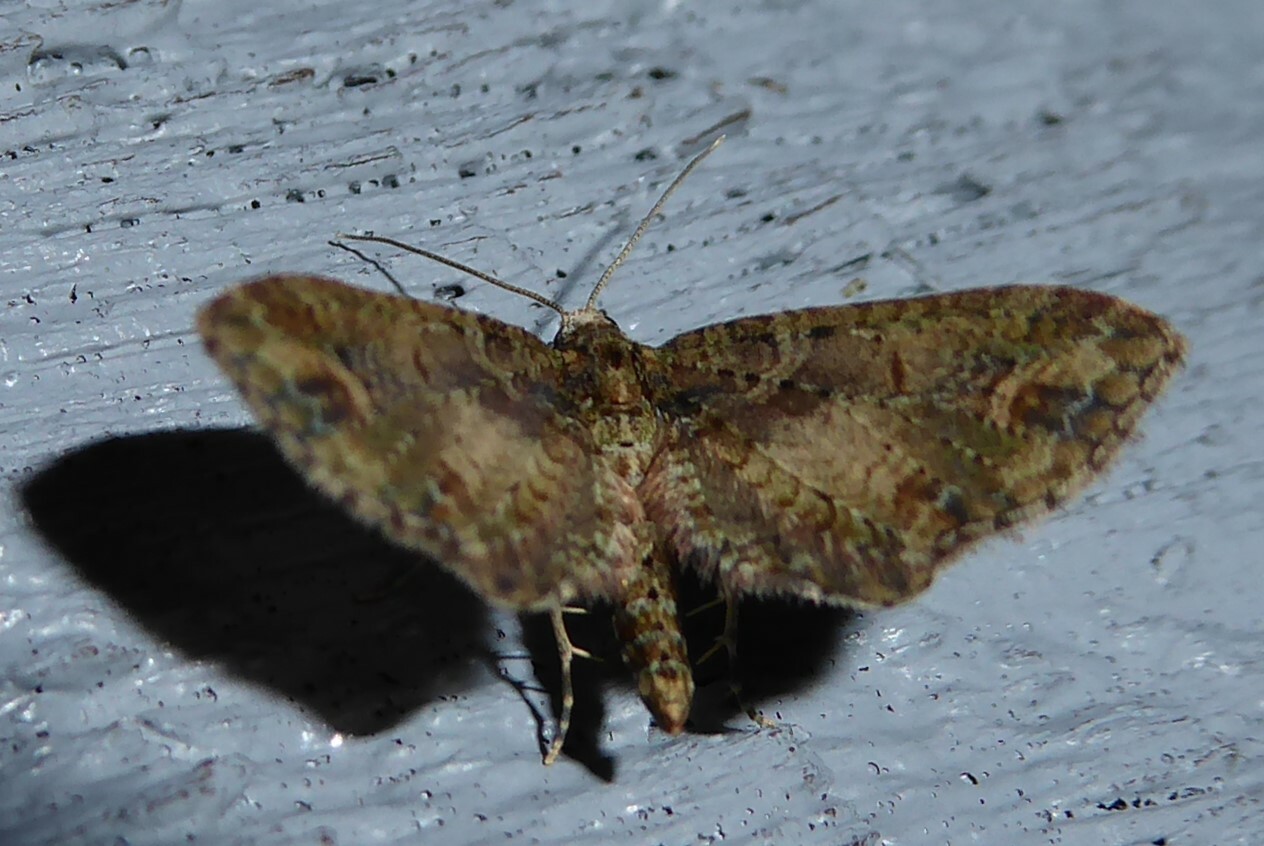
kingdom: Animalia
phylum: Arthropoda
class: Insecta
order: Lepidoptera
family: Geometridae
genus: Idaea
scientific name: Idaea mutanda
